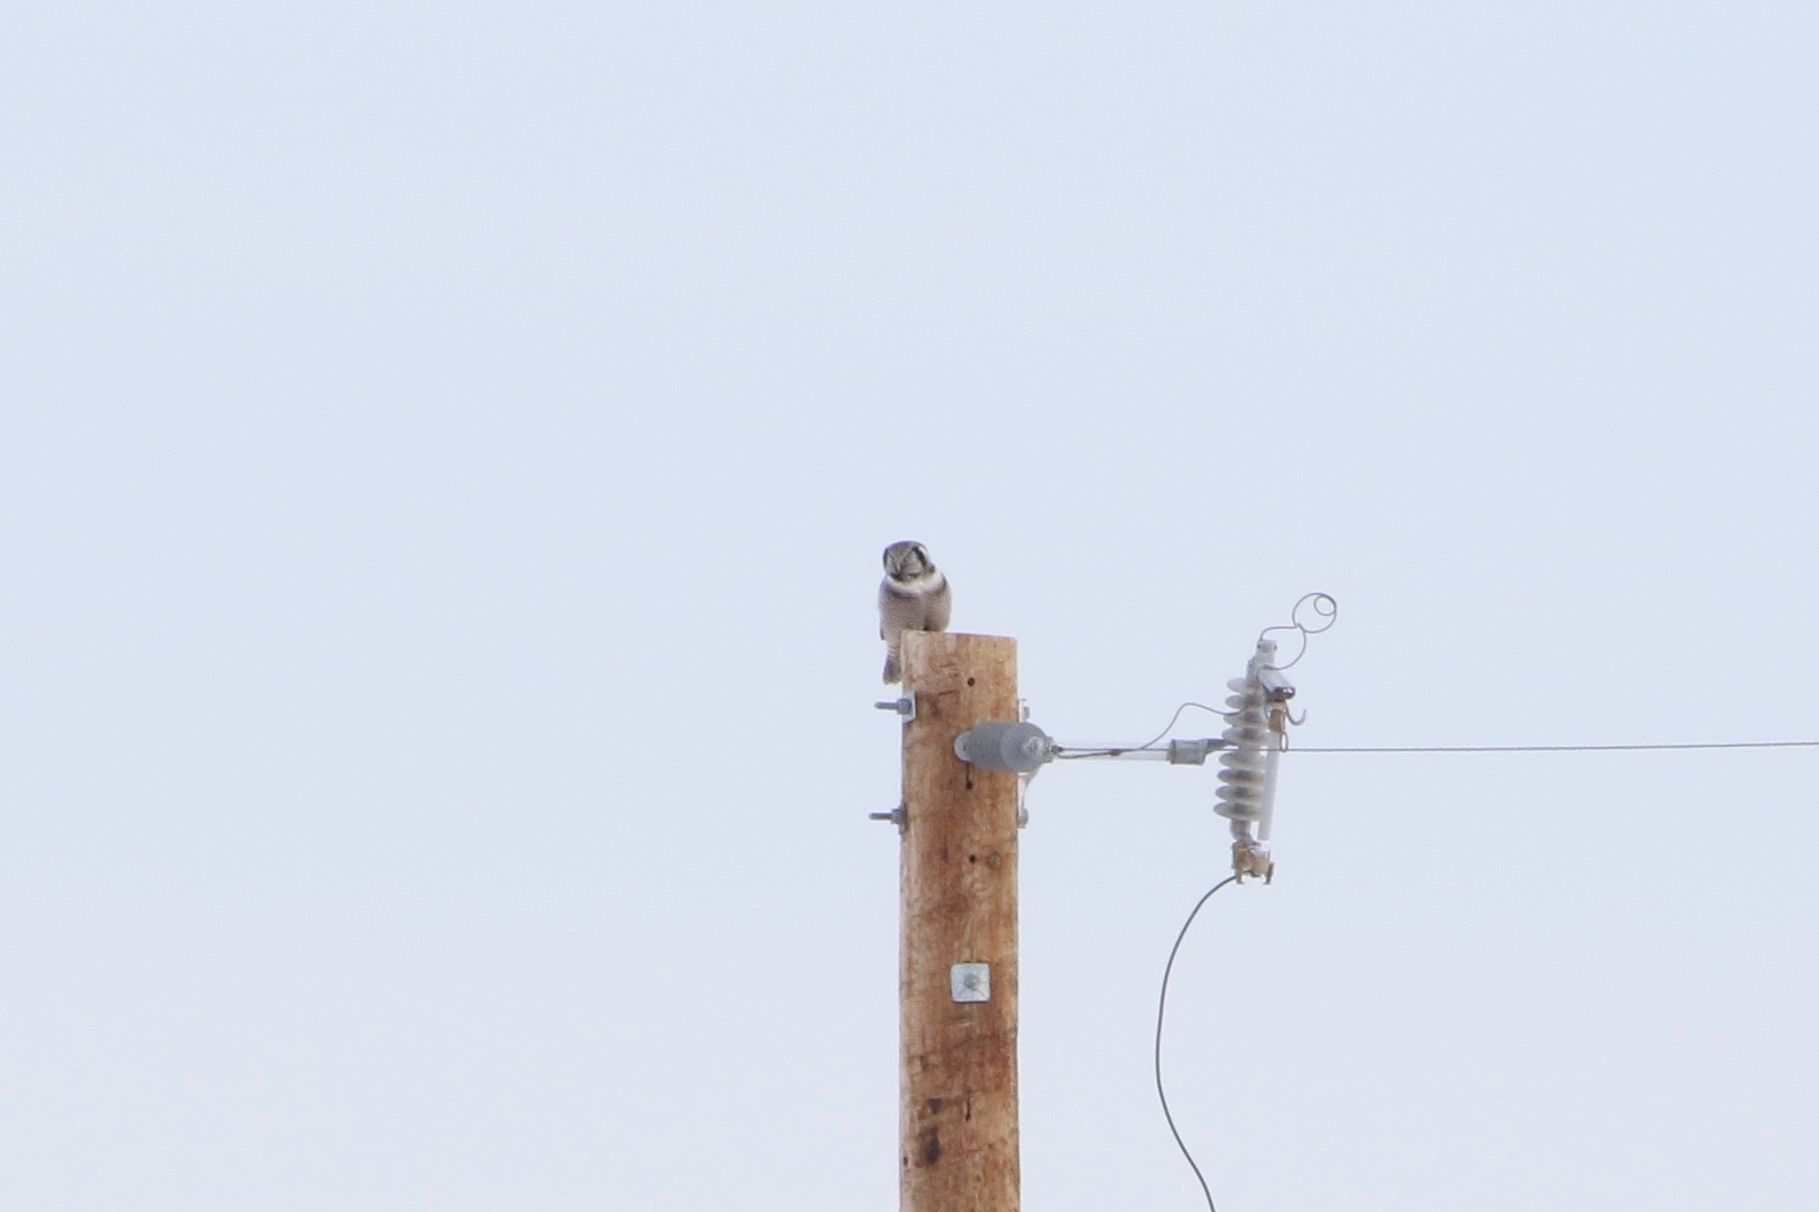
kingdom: Animalia
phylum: Chordata
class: Aves
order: Strigiformes
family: Strigidae
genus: Surnia
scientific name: Surnia ulula
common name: Northern hawk-owl
